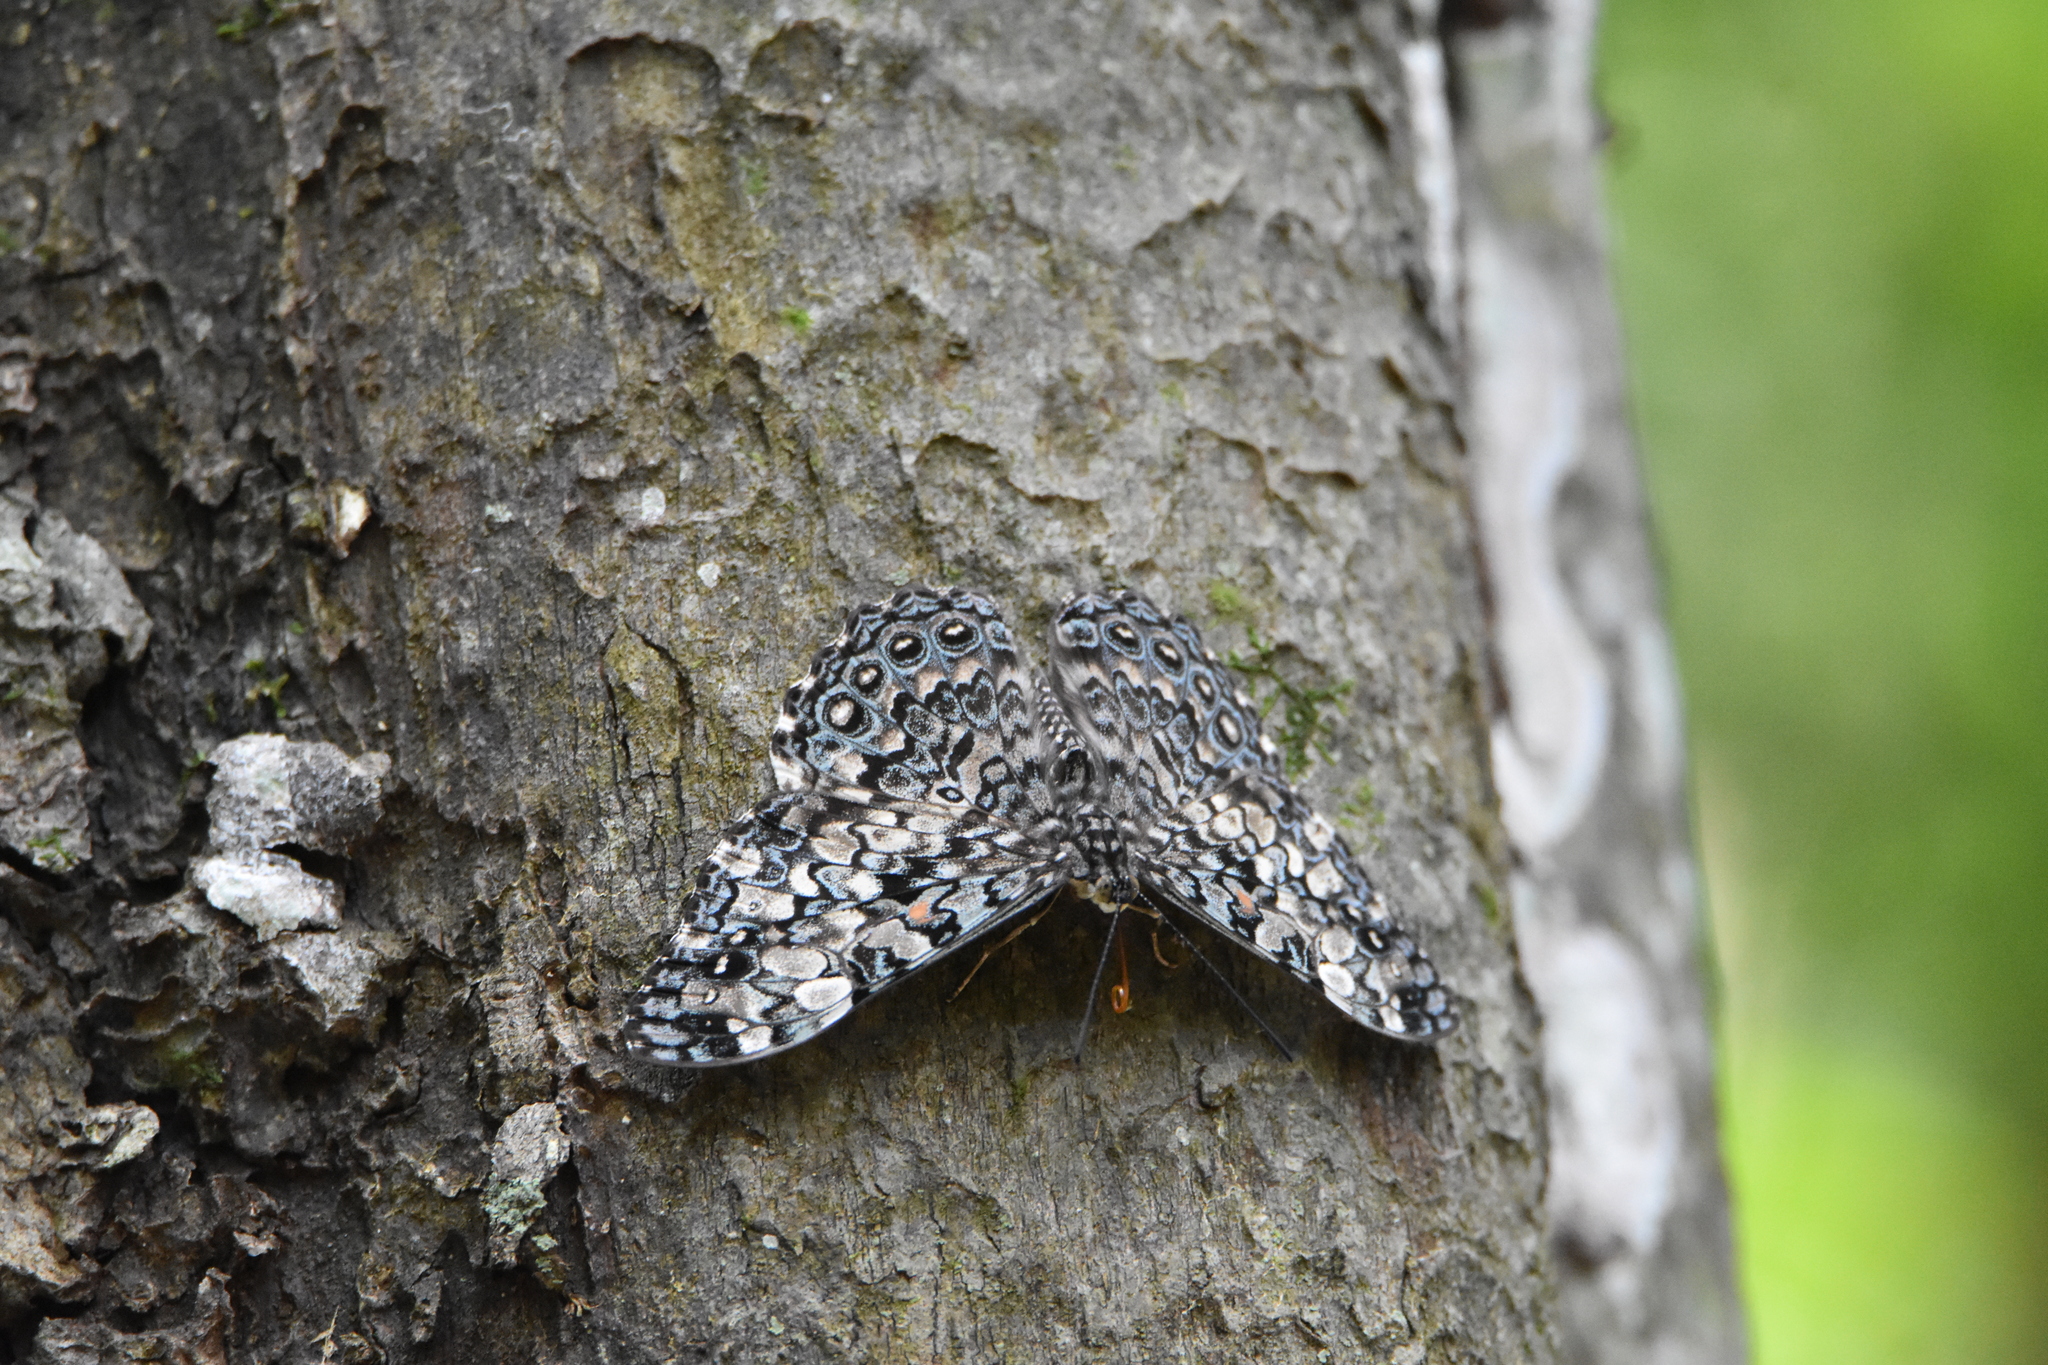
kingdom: Animalia
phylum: Arthropoda
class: Insecta
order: Lepidoptera
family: Nymphalidae
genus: Hamadryas
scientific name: Hamadryas epinome
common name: Epinome cracker
